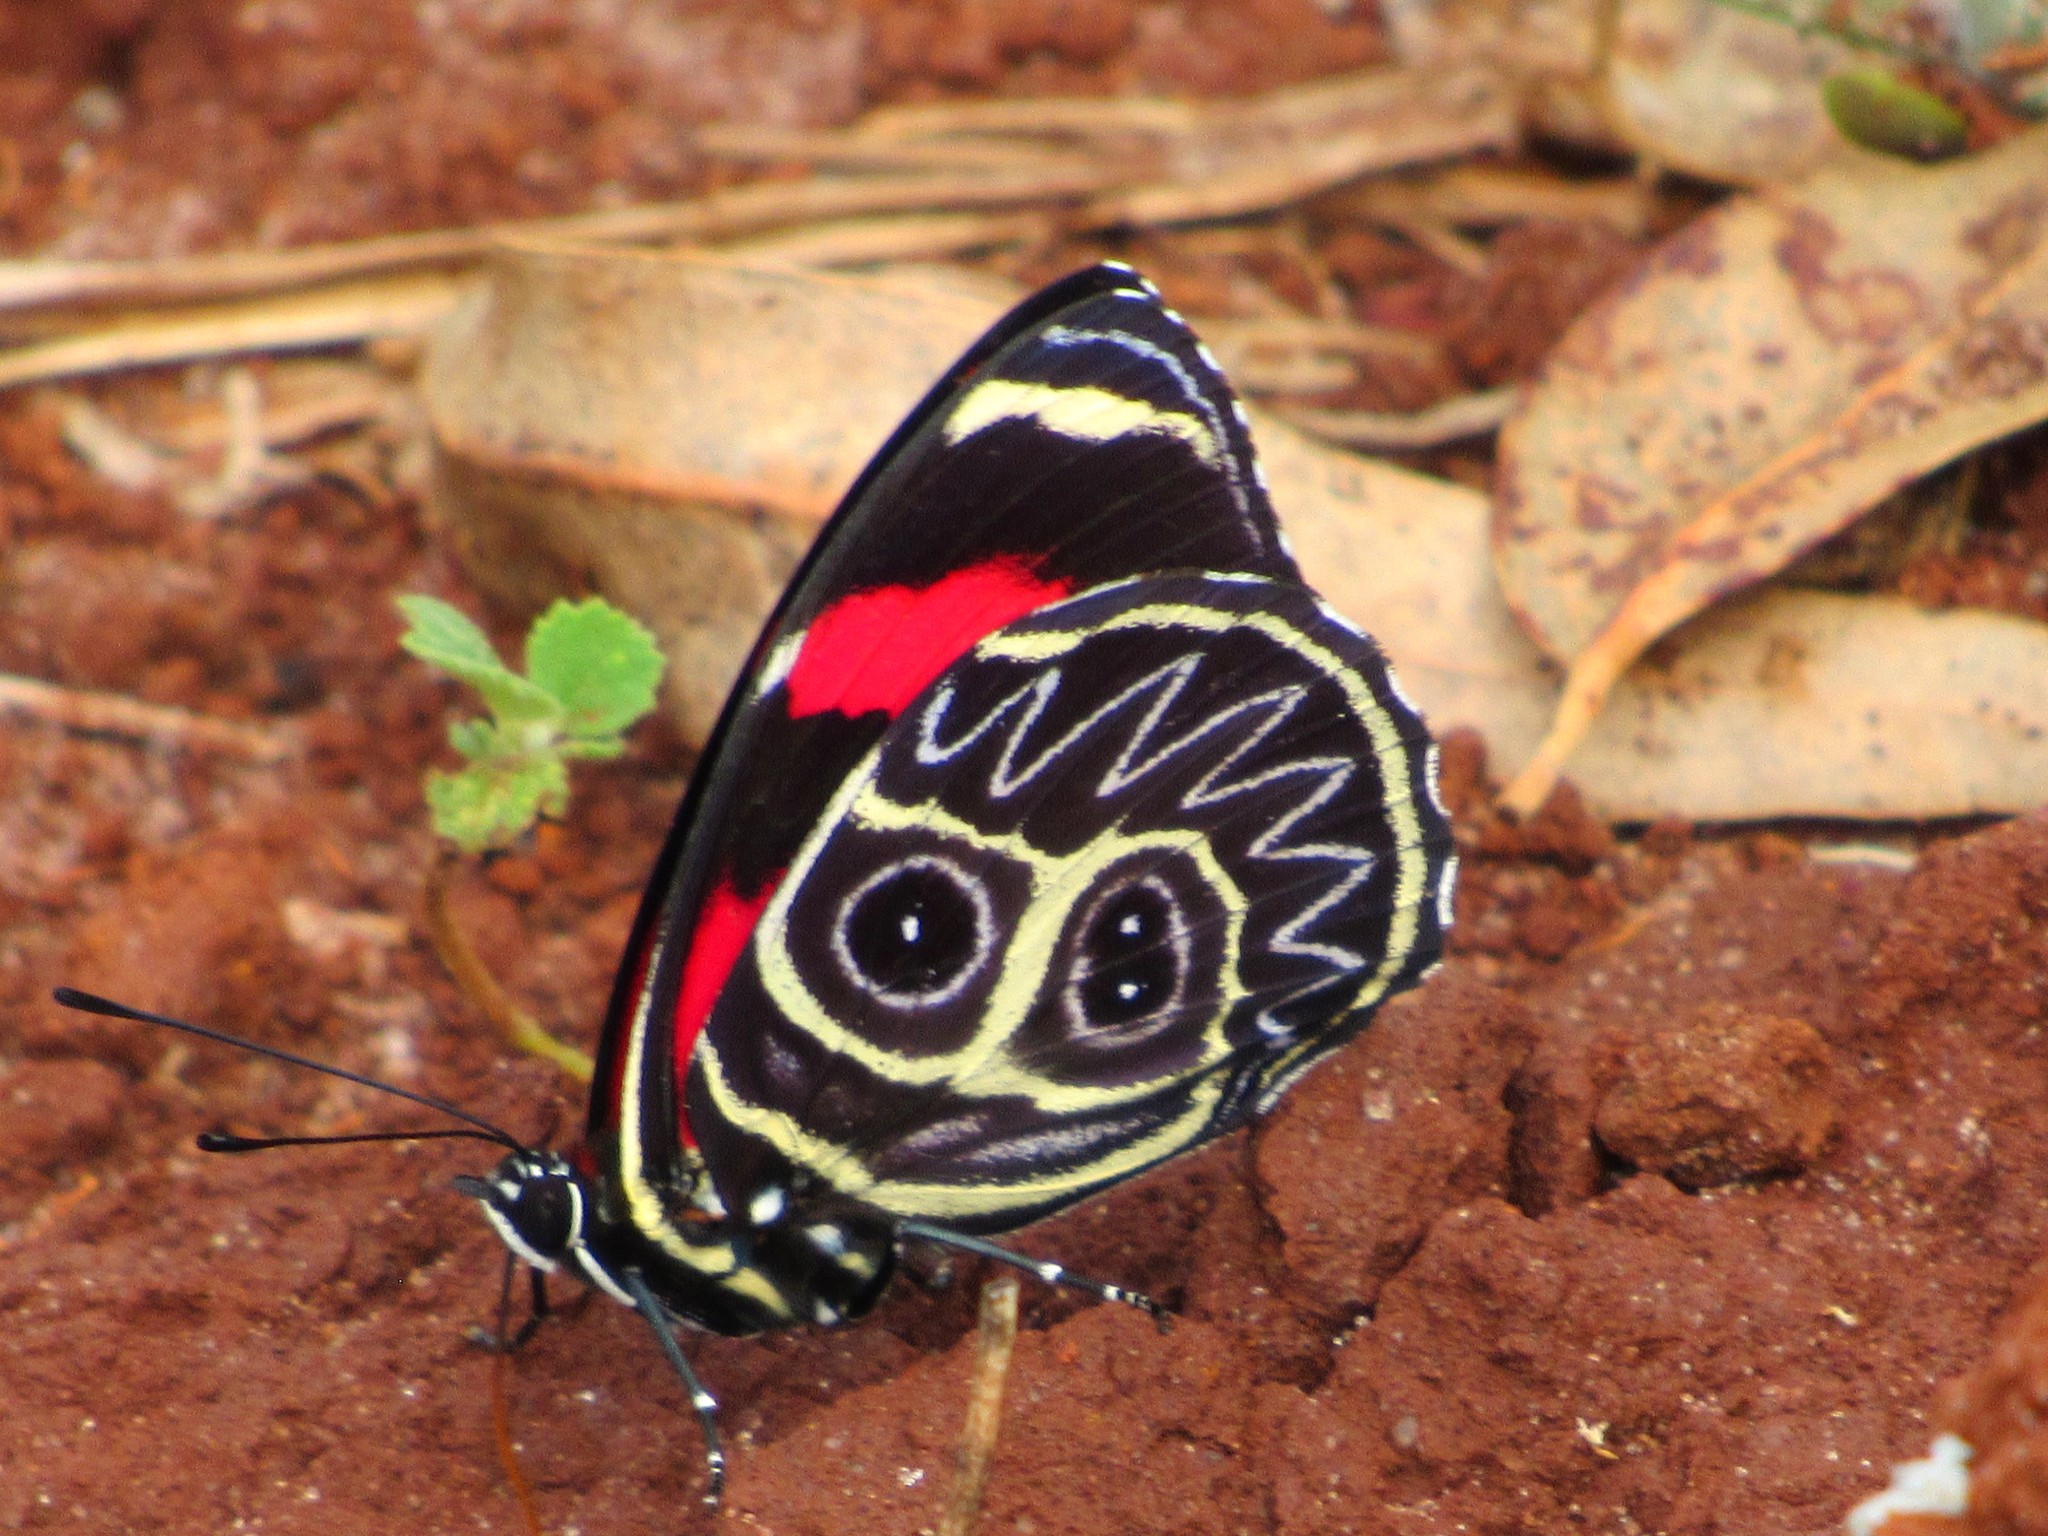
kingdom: Animalia
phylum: Arthropoda
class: Insecta
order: Lepidoptera
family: Nymphalidae
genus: Catagramma
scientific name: Catagramma Callicore sorana
